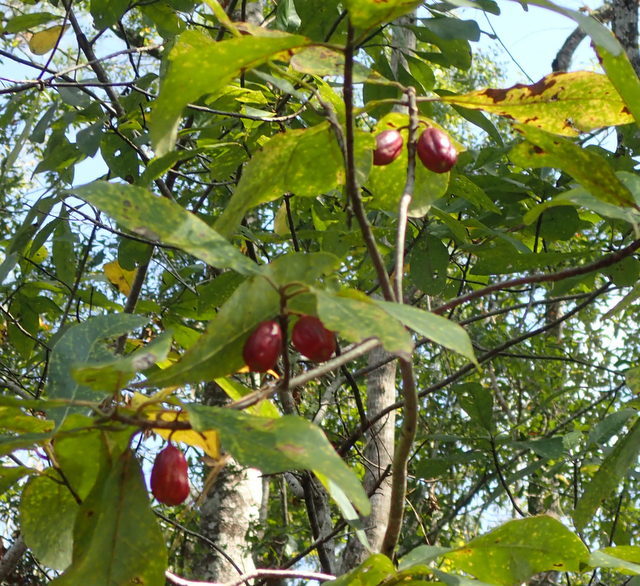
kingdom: Plantae
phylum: Tracheophyta
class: Magnoliopsida
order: Cornales
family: Nyssaceae
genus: Nyssa
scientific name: Nyssa ogeche
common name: Ogeechee tupelo
